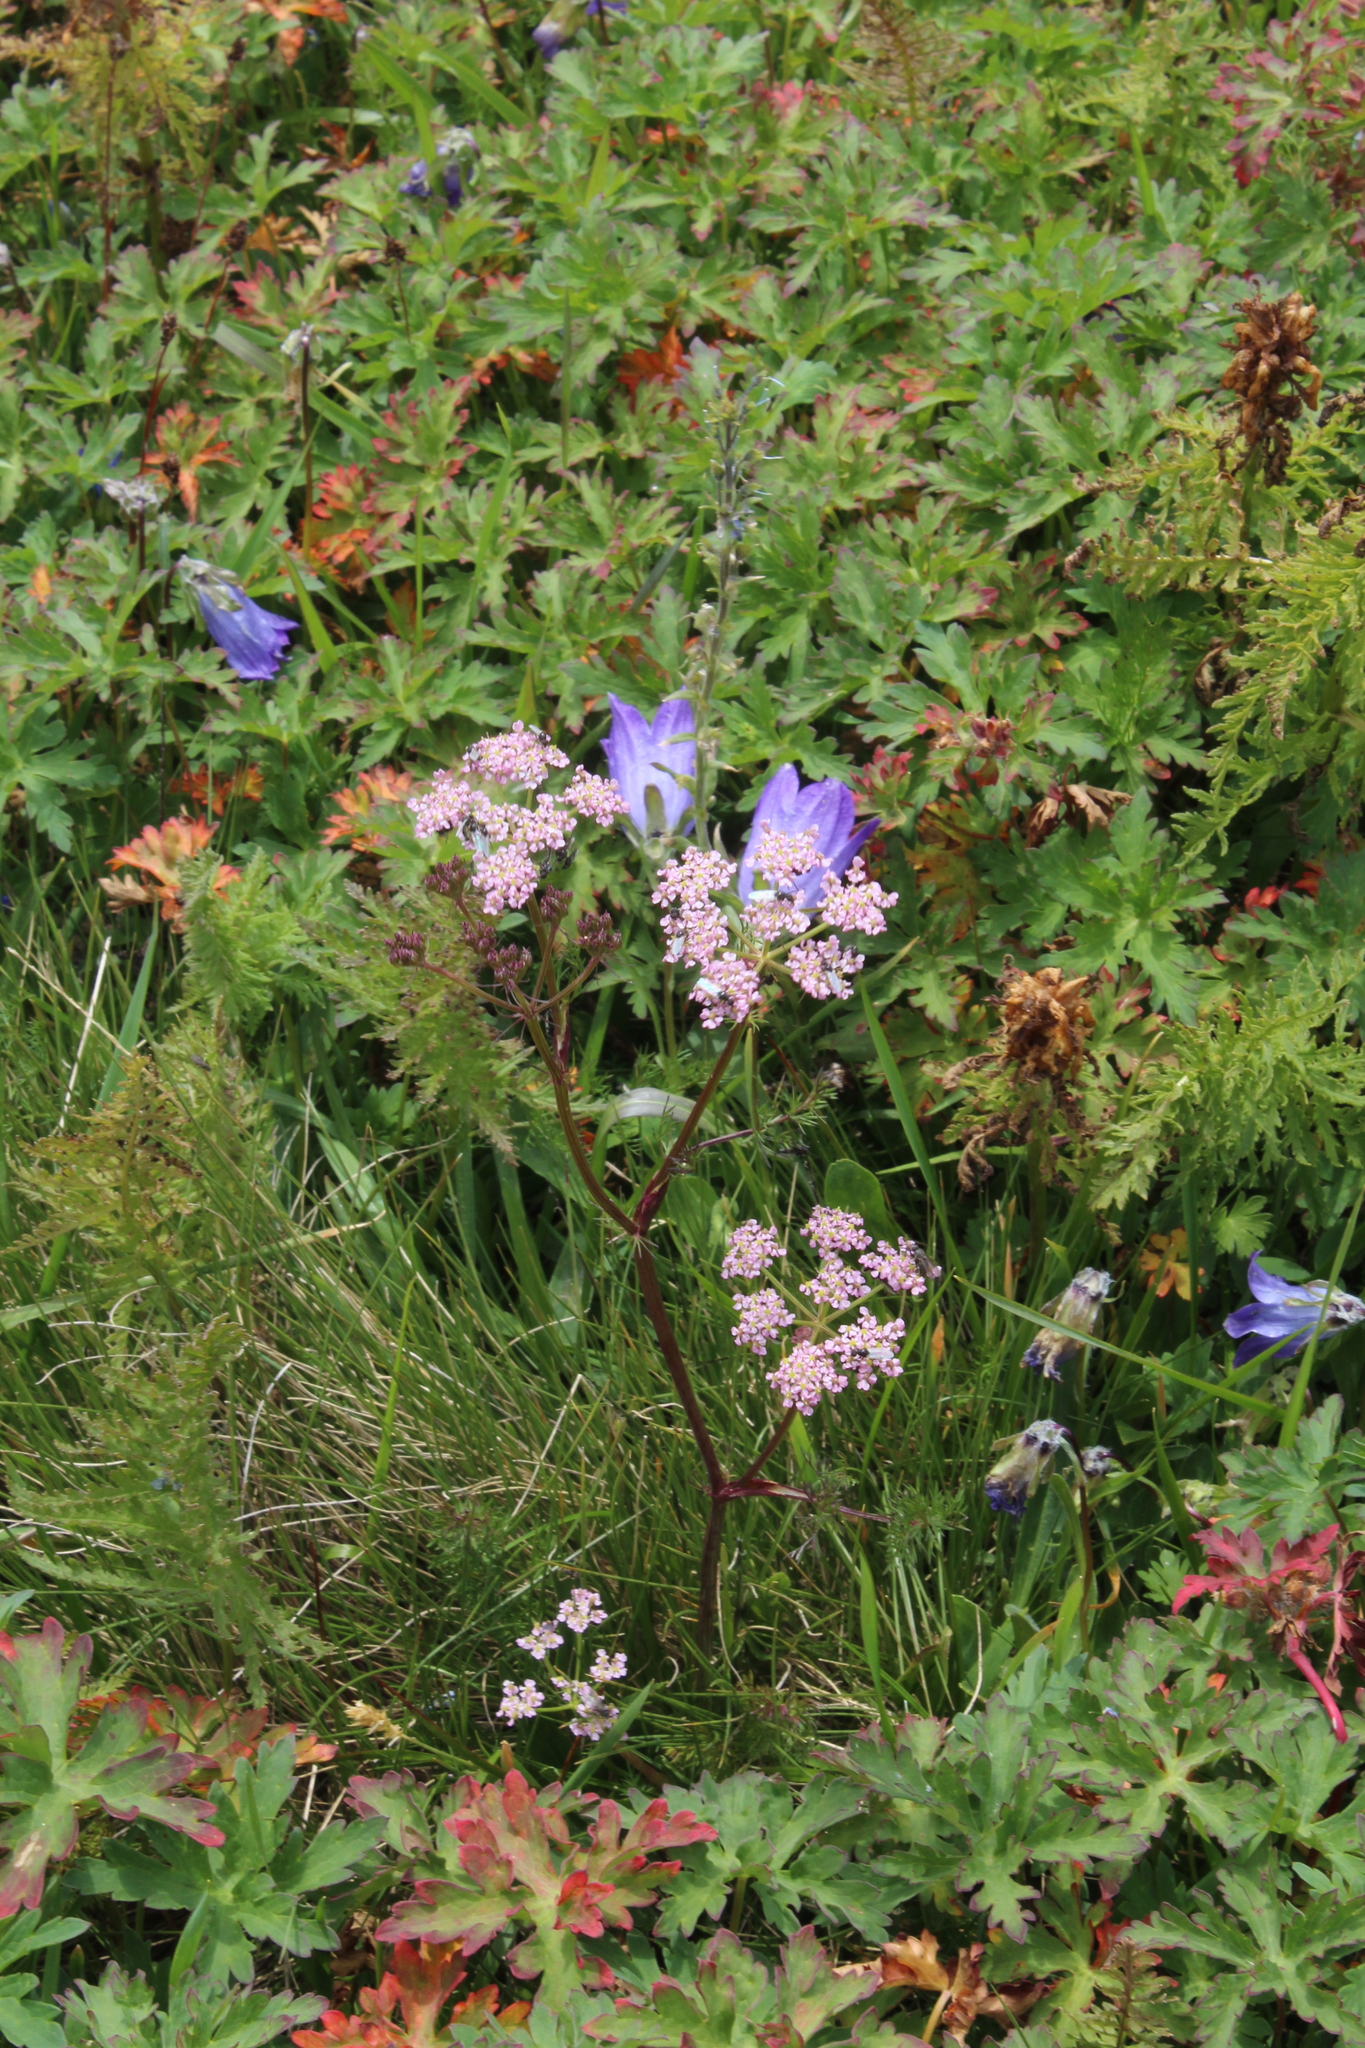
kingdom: Plantae
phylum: Tracheophyta
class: Magnoliopsida
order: Apiales
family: Apiaceae
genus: Carum
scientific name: Carum meifolium
